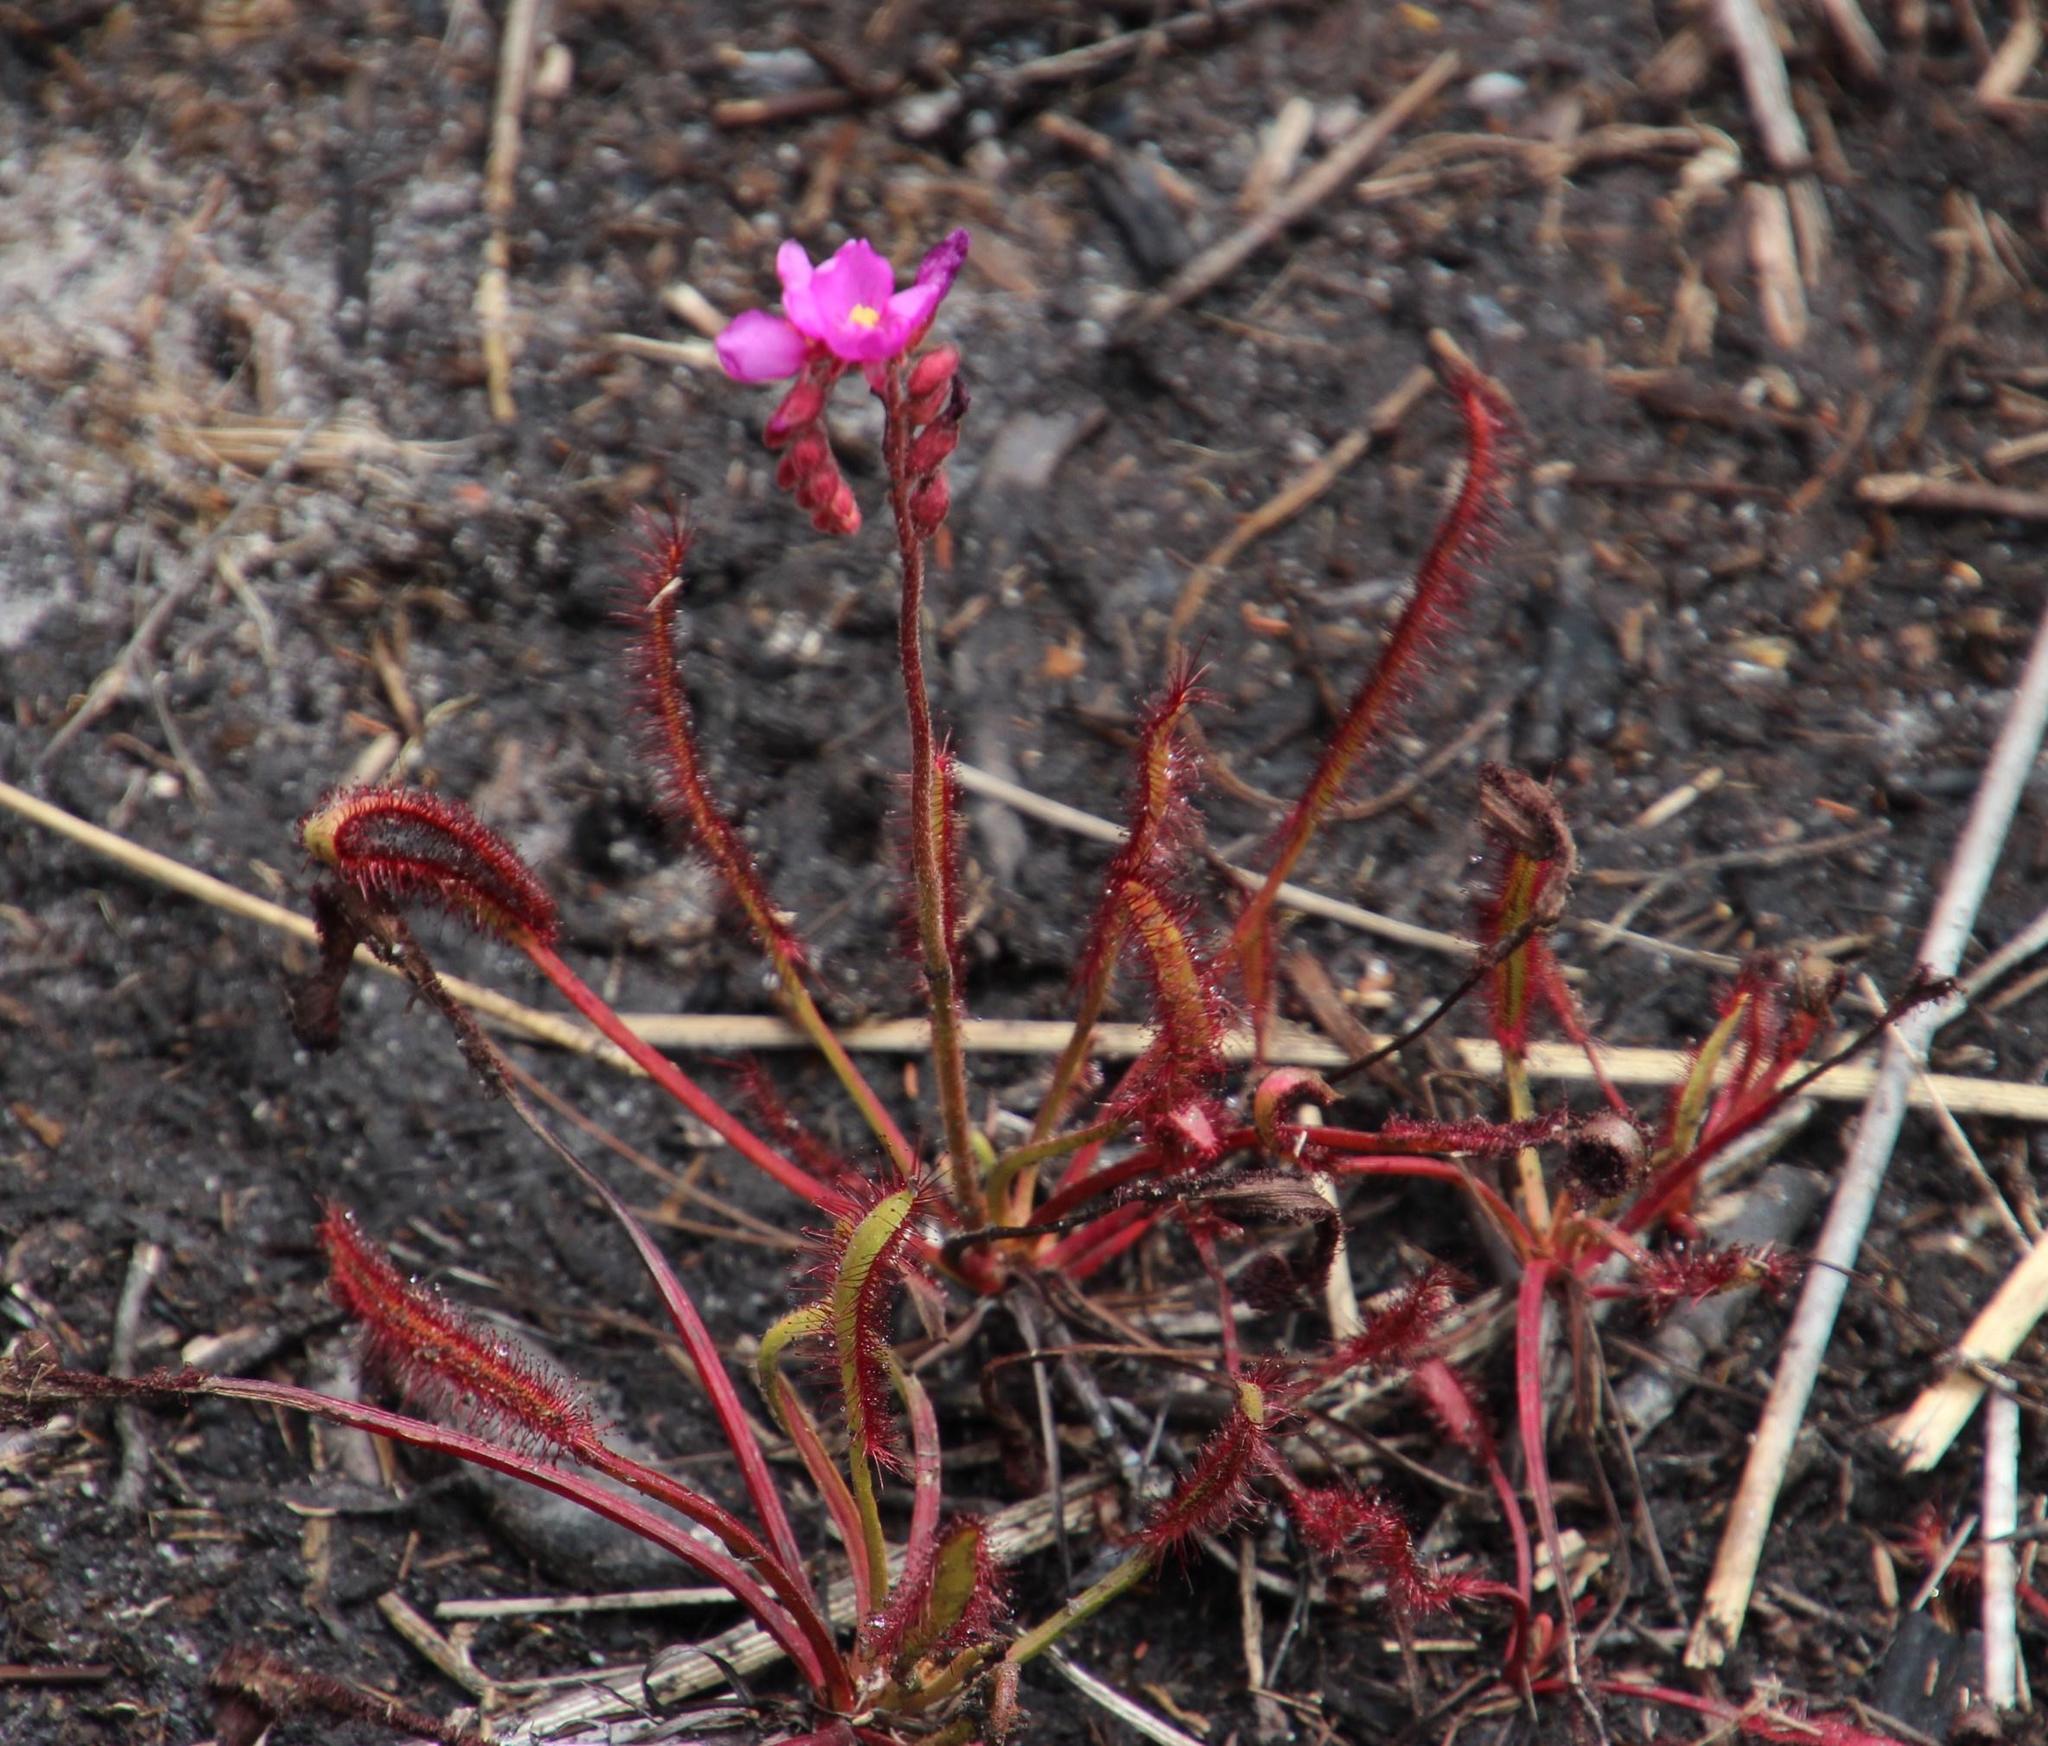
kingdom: Plantae
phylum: Tracheophyta
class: Magnoliopsida
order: Caryophyllales
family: Droseraceae
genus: Drosera
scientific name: Drosera capensis
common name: Cape sundew
